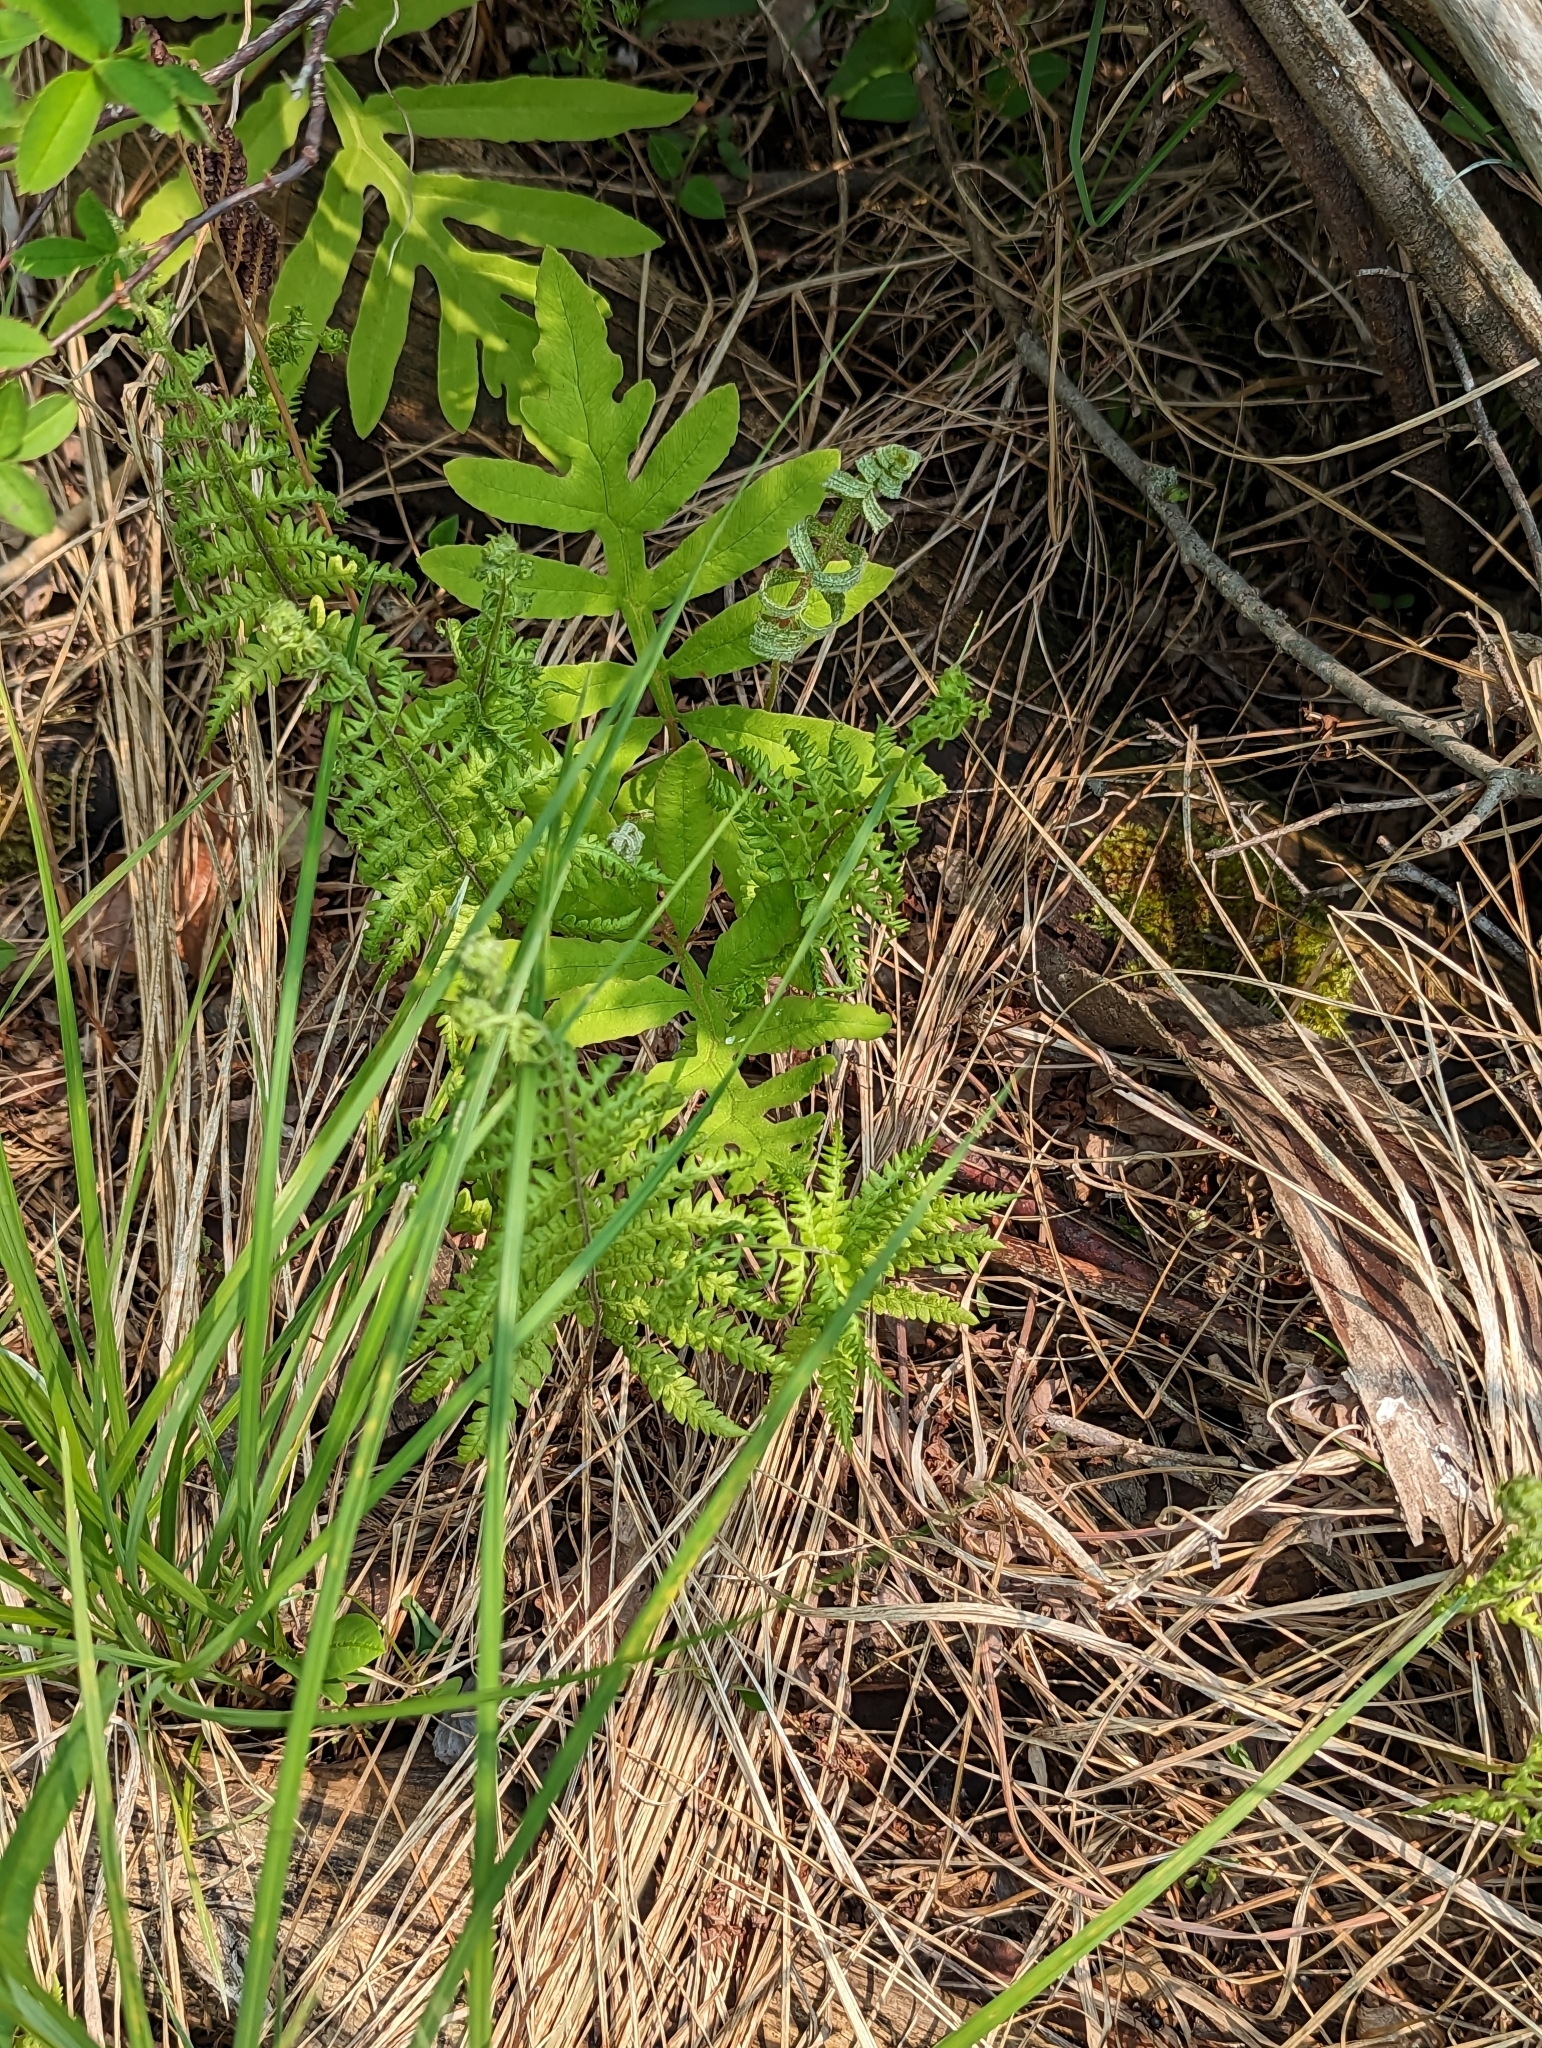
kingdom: Plantae
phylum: Tracheophyta
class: Polypodiopsida
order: Polypodiales
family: Thelypteridaceae
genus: Thelypteris
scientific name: Thelypteris palustris
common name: Marsh fern
